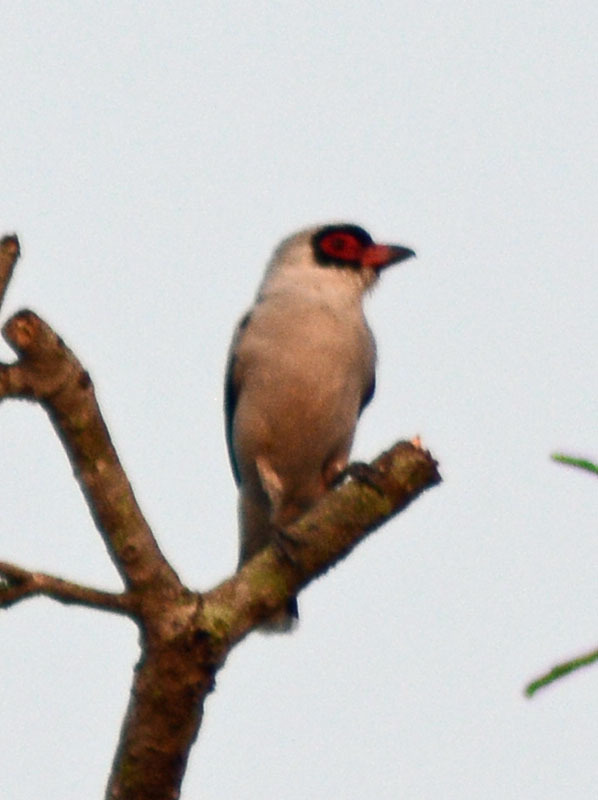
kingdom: Animalia
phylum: Chordata
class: Aves
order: Passeriformes
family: Cotingidae
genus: Tityra
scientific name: Tityra semifasciata
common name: Masked tityra
